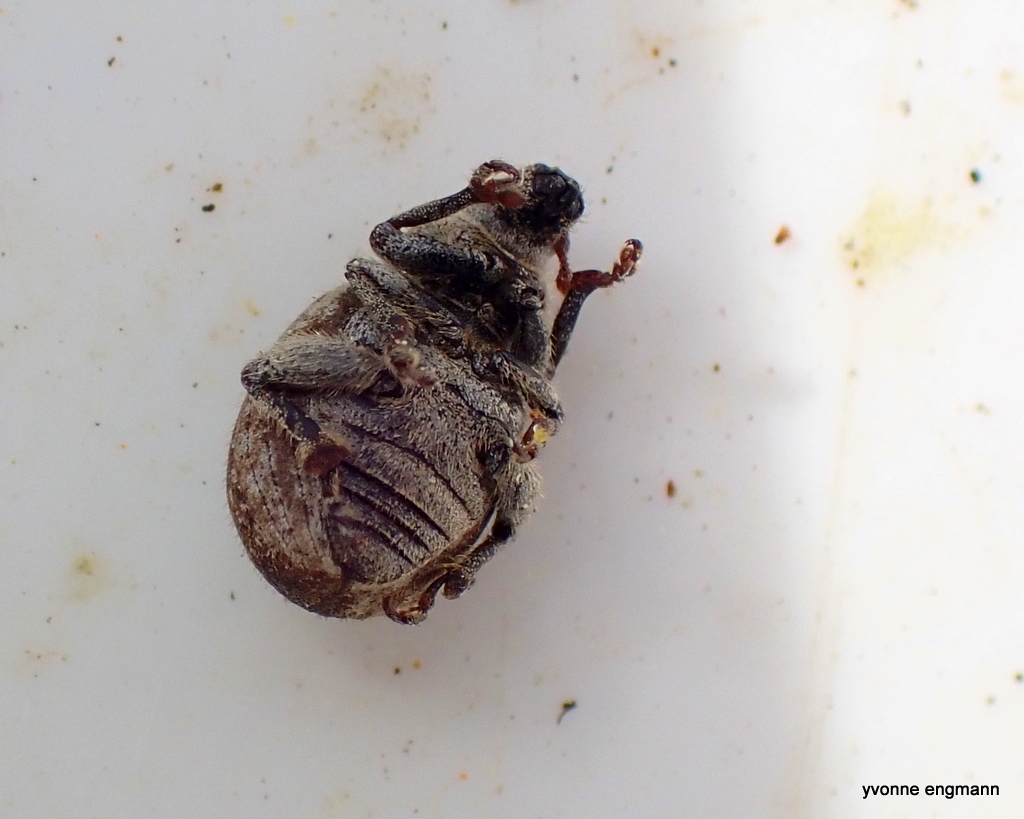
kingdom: Animalia
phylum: Arthropoda
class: Insecta
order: Coleoptera
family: Curculionidae
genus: Philopedon
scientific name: Philopedon plagiatum
